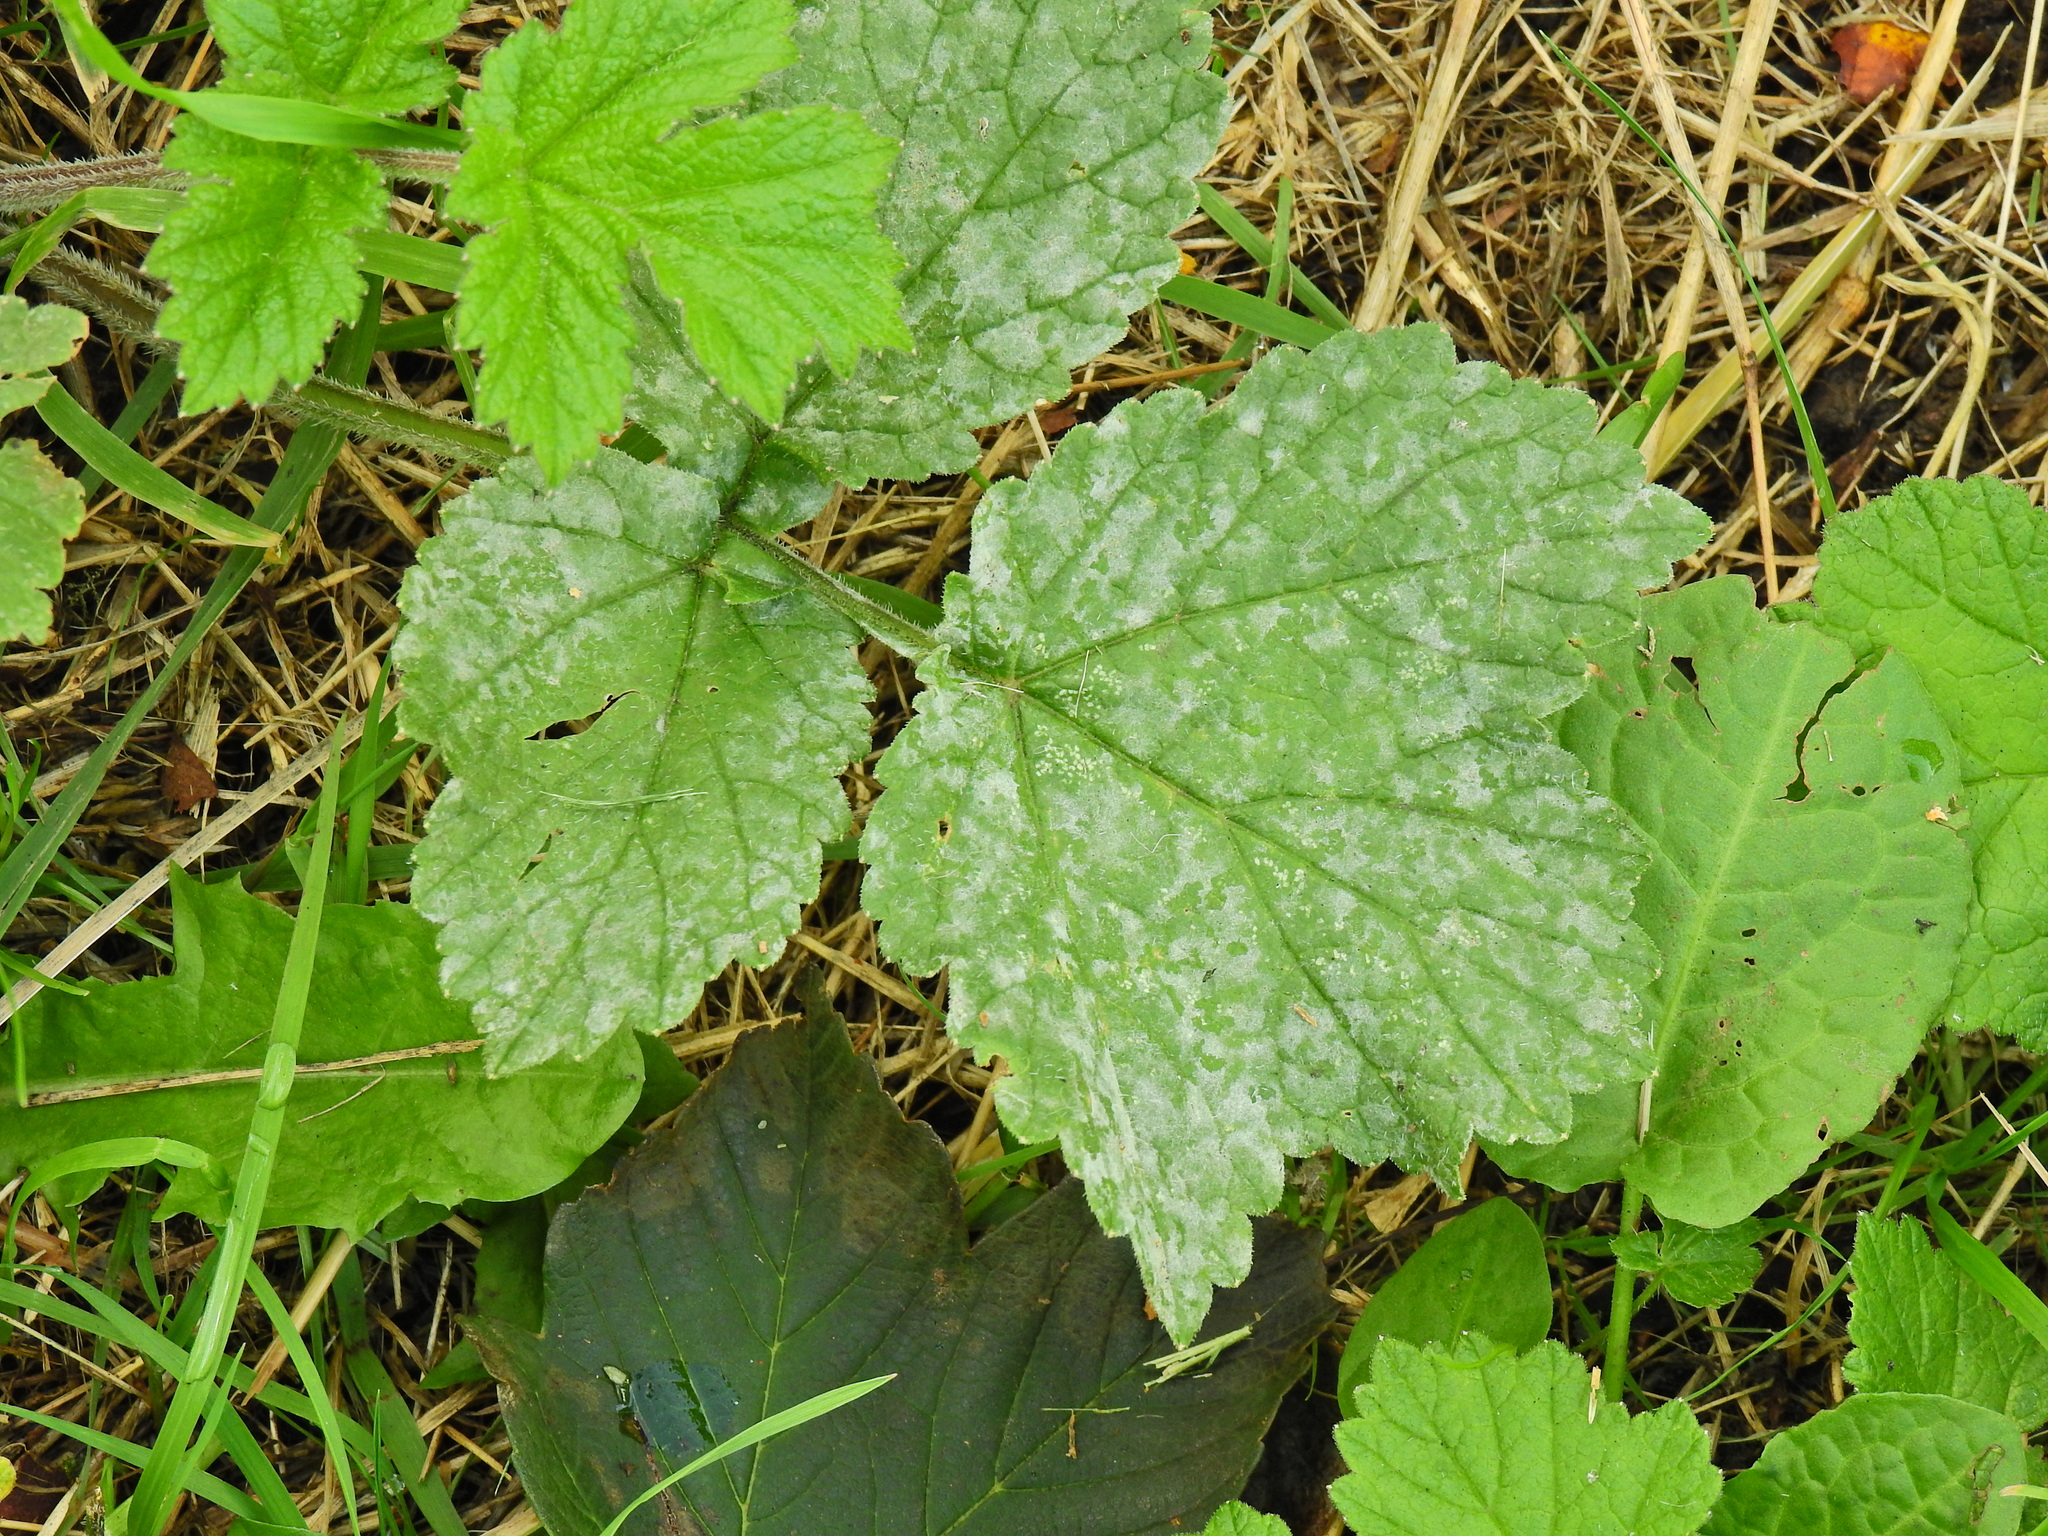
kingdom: Fungi
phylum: Ascomycota
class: Leotiomycetes
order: Helotiales
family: Erysiphaceae
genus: Erysiphe
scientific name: Erysiphe heraclei
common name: Umbellifer mildew
